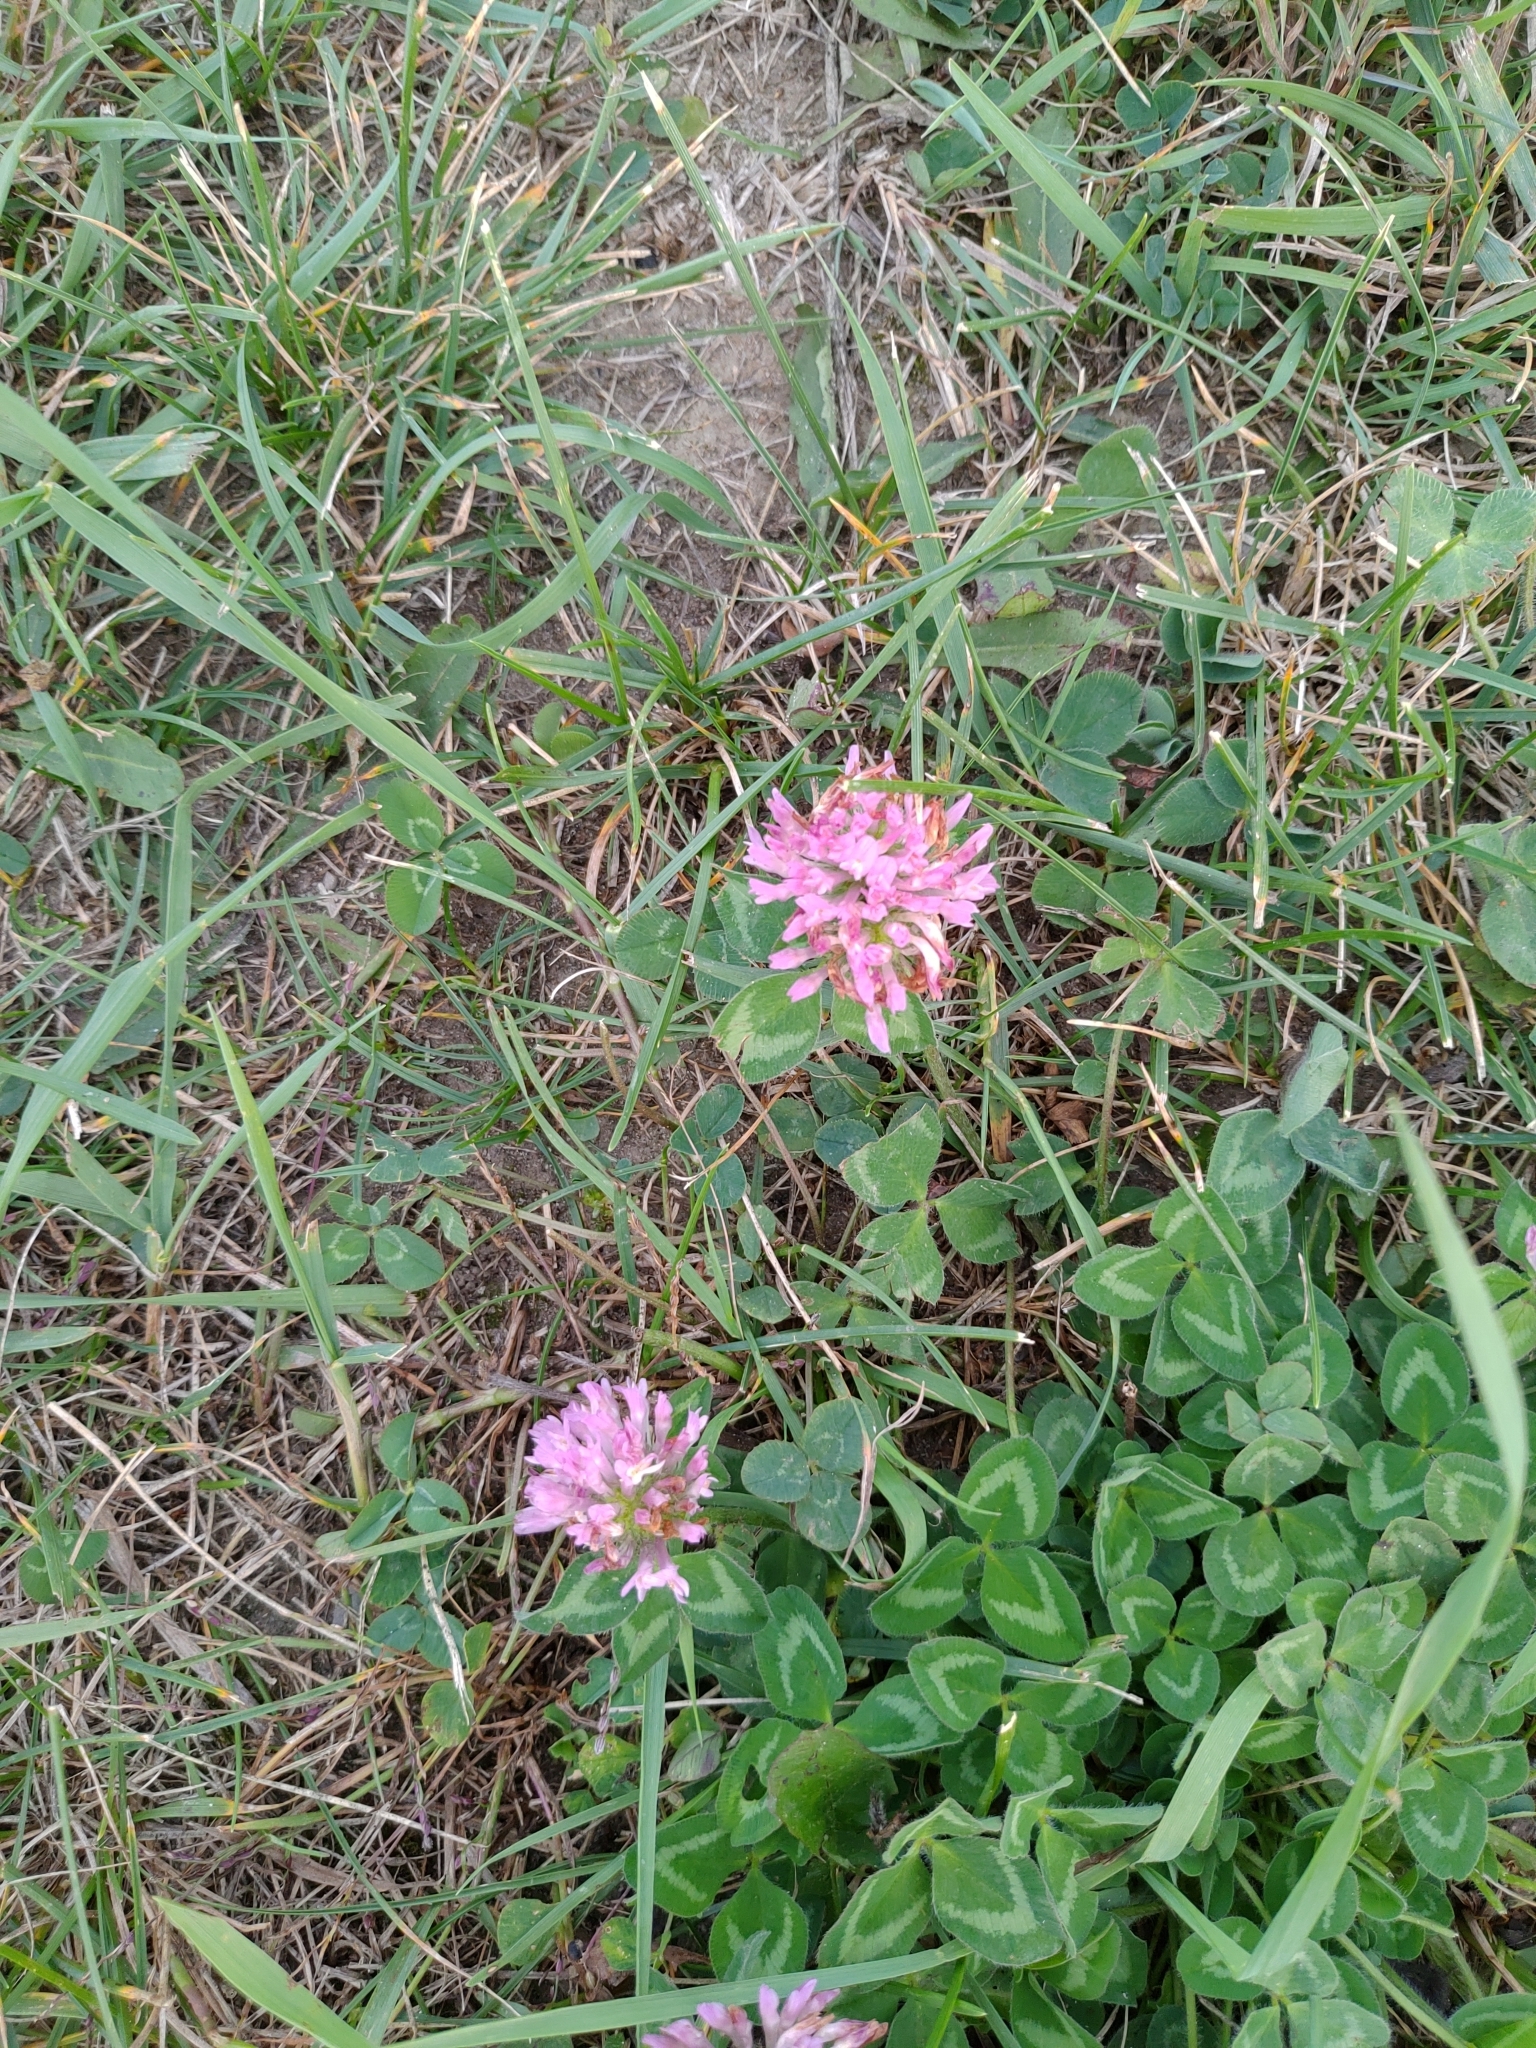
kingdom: Plantae
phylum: Tracheophyta
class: Magnoliopsida
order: Fabales
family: Fabaceae
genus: Trifolium
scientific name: Trifolium pratense
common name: Red clover
